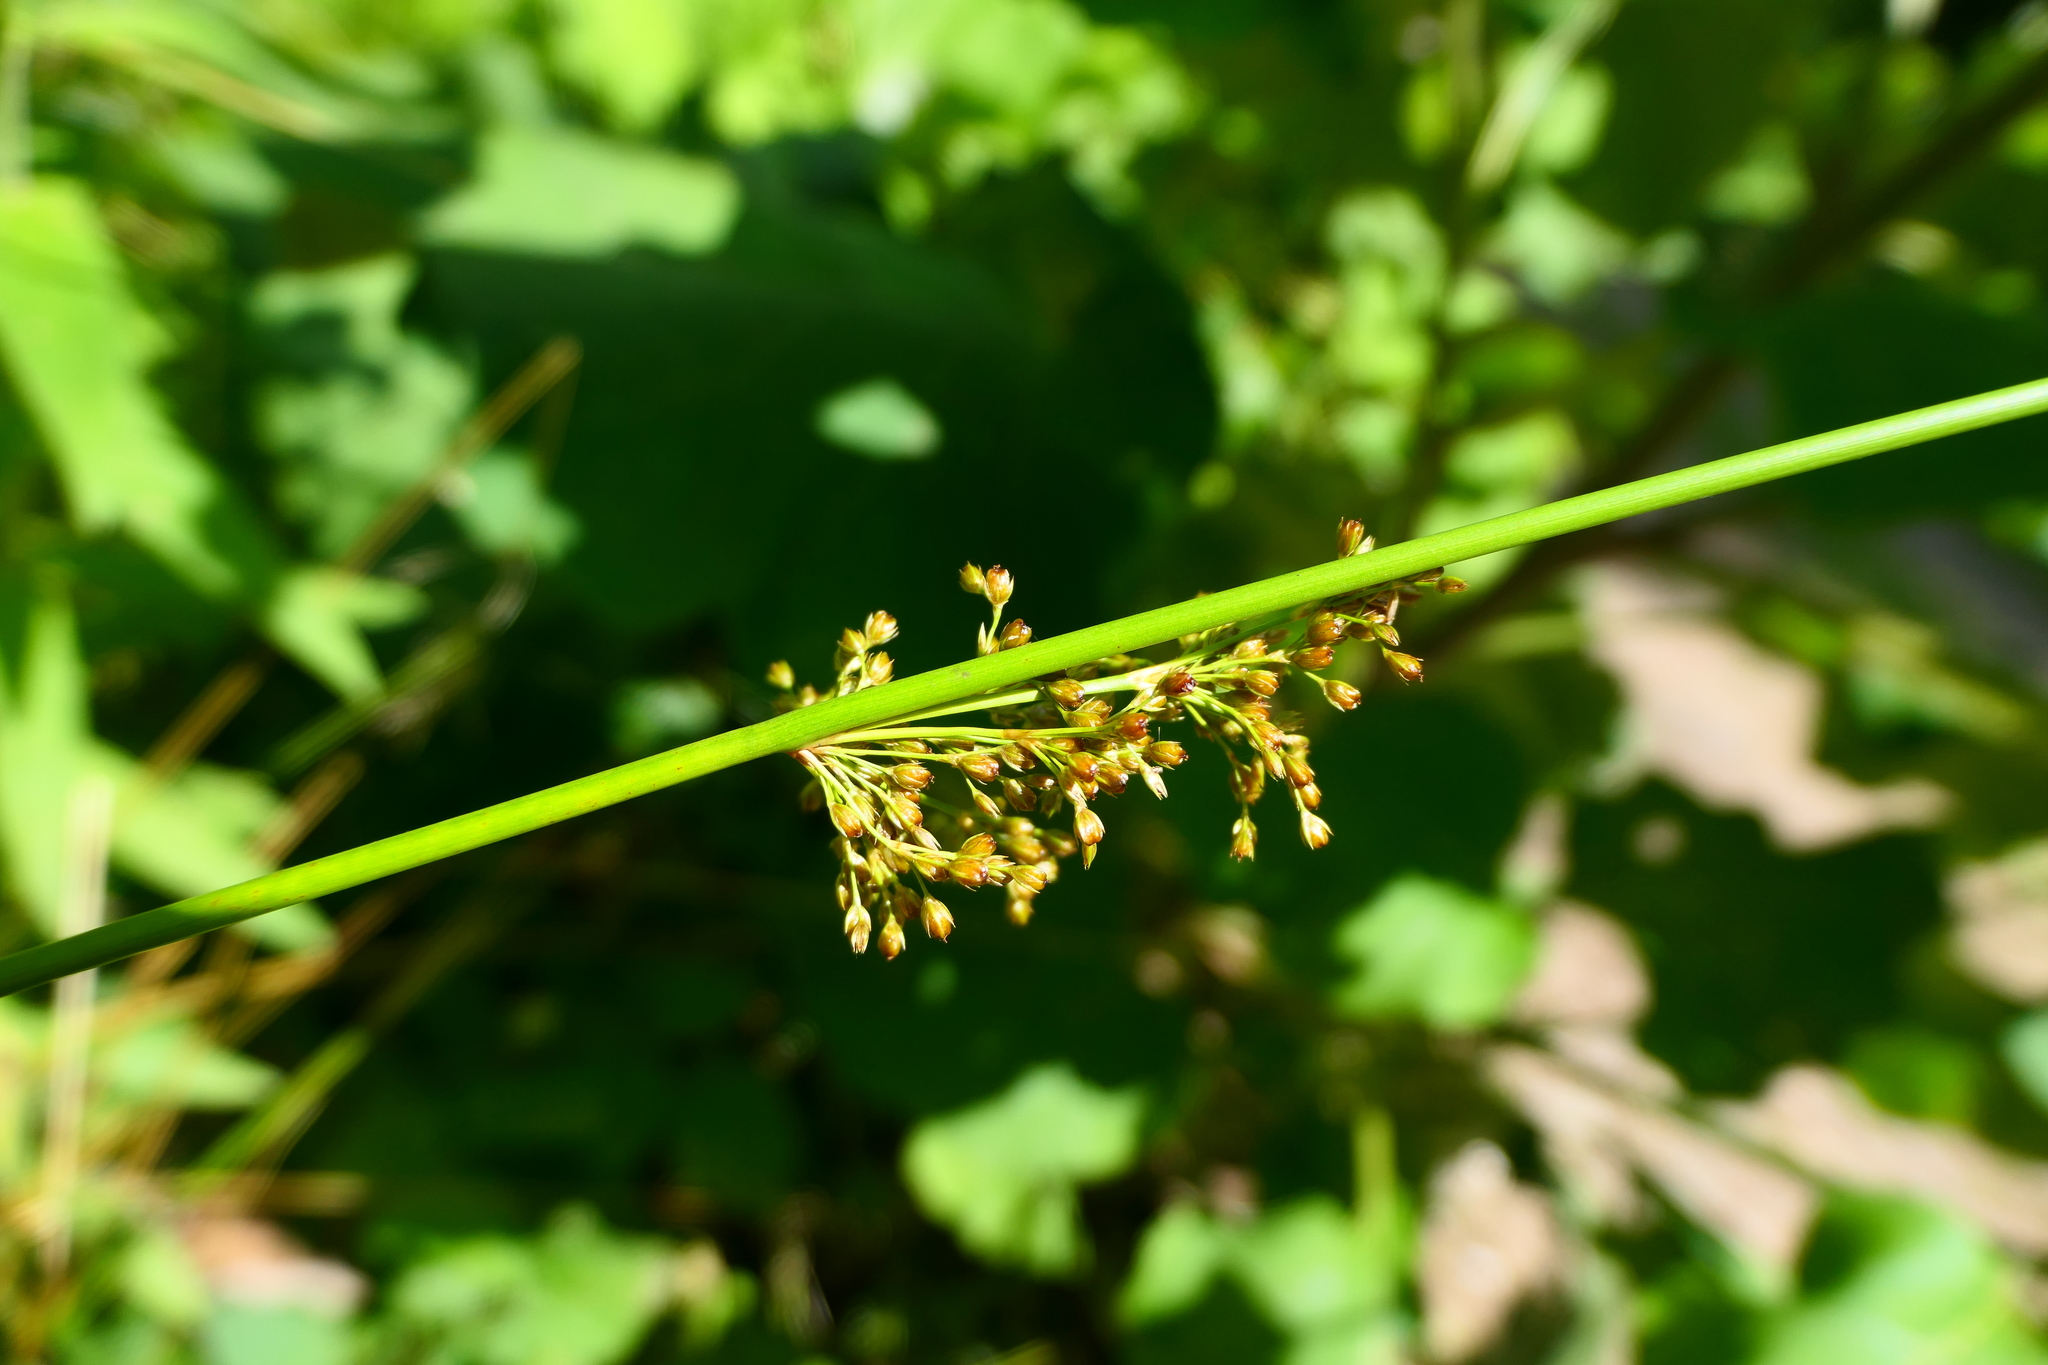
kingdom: Plantae
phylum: Tracheophyta
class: Liliopsida
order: Poales
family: Juncaceae
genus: Juncus
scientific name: Juncus effusus
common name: Soft rush
